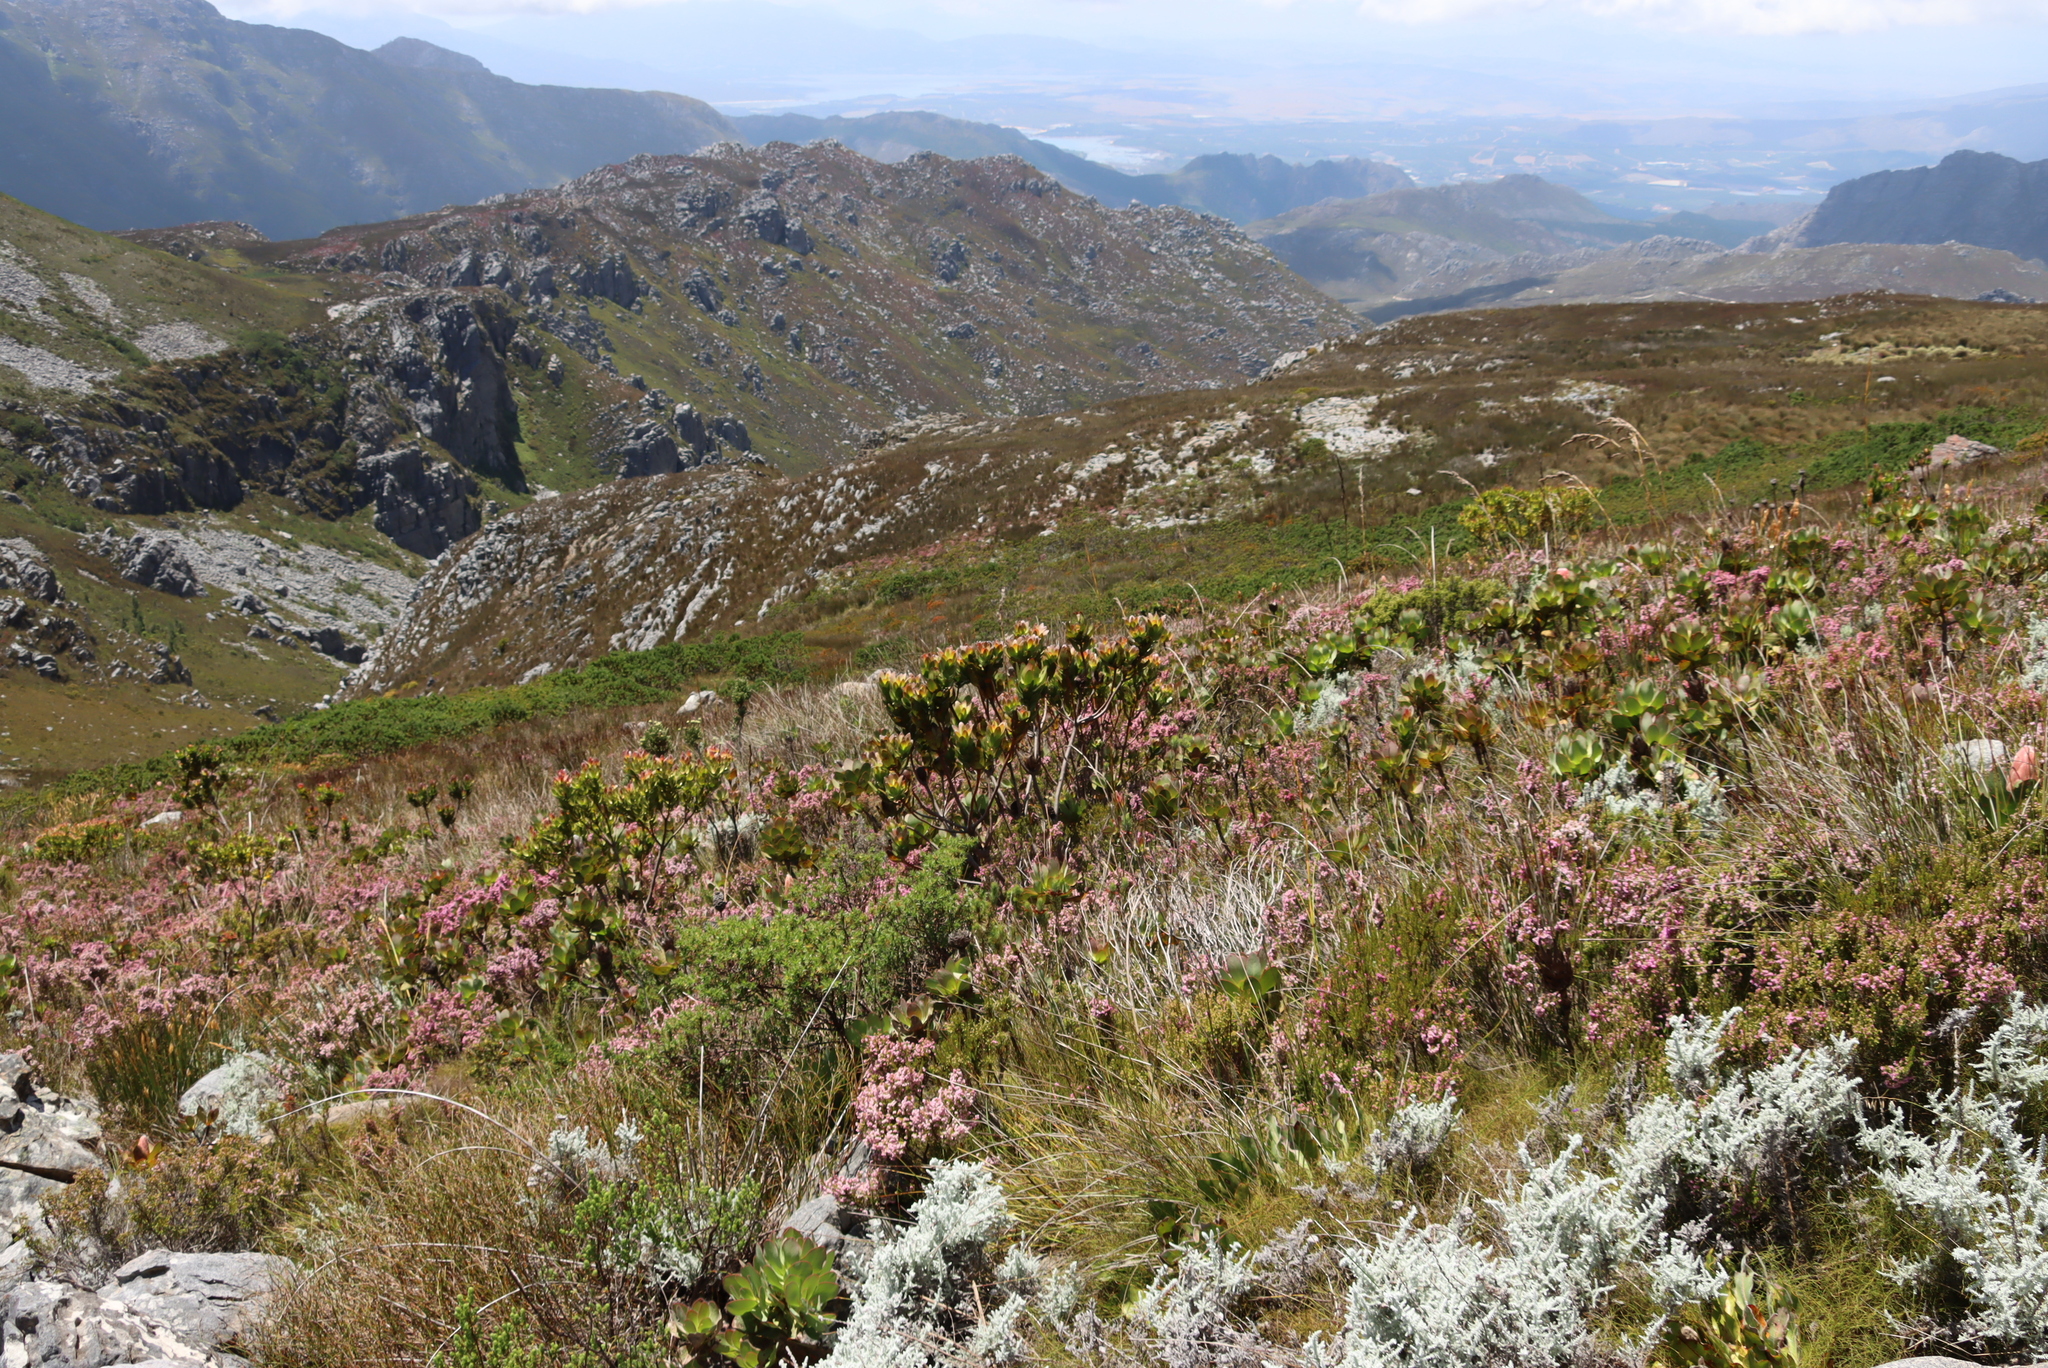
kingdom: Plantae
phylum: Tracheophyta
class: Magnoliopsida
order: Proteales
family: Proteaceae
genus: Leucadendron
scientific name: Leucadendron gandogeri
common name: Broad-leaf conebush
